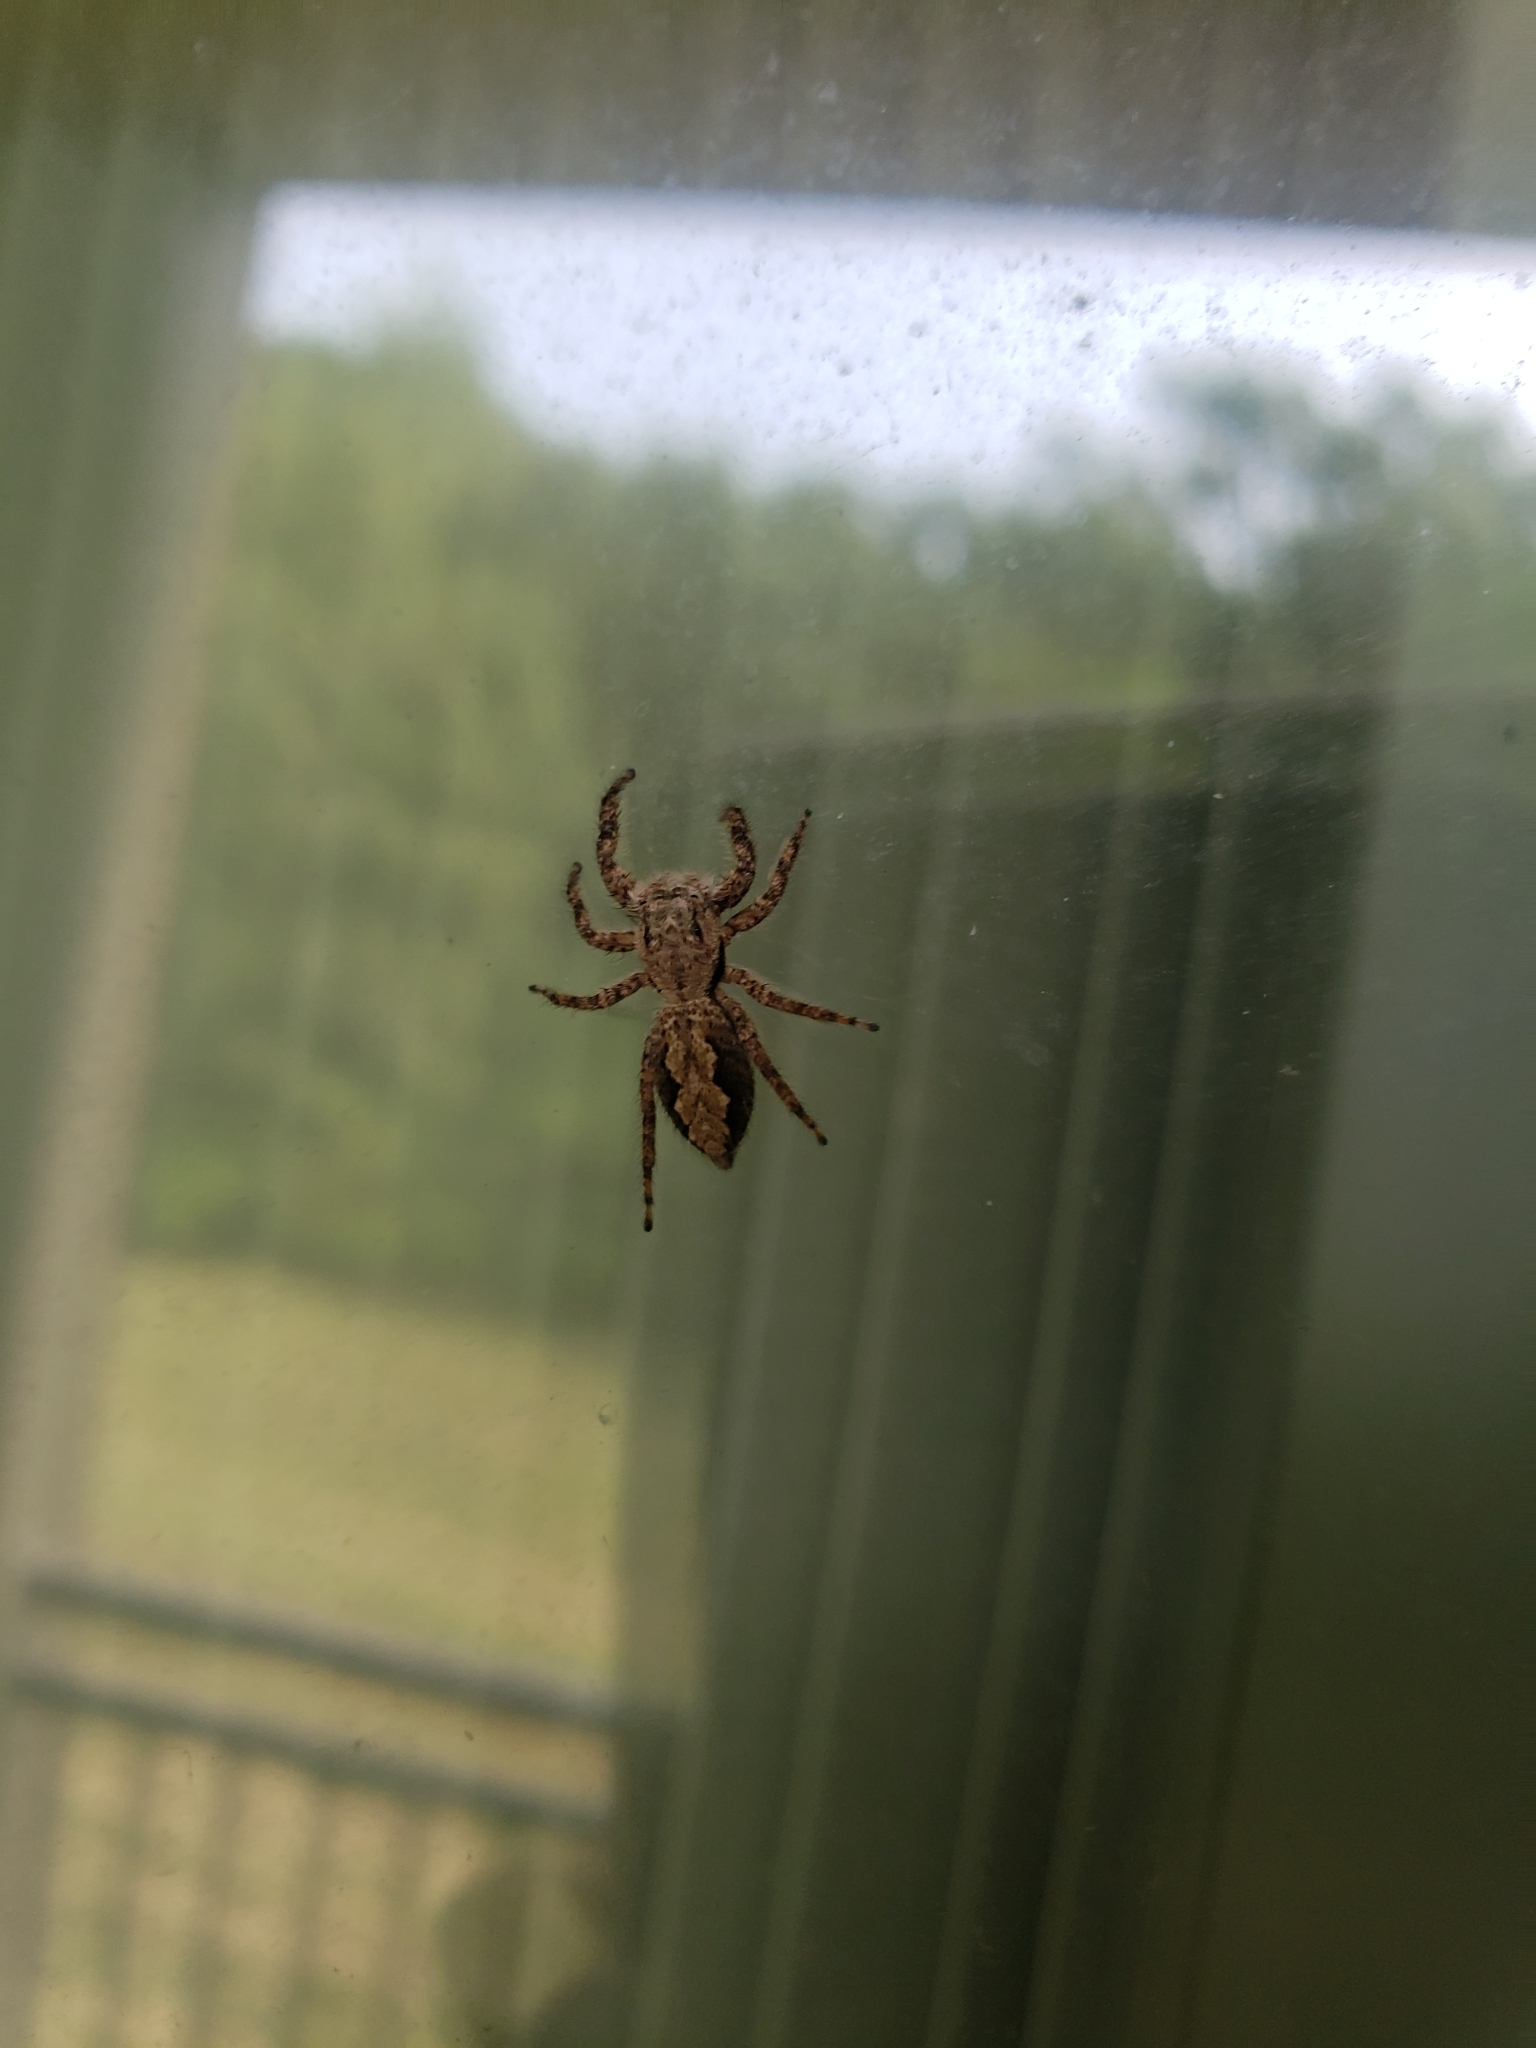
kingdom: Animalia
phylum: Arthropoda
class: Arachnida
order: Araneae
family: Salticidae
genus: Platycryptus
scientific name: Platycryptus undatus
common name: Tan jumping spider
